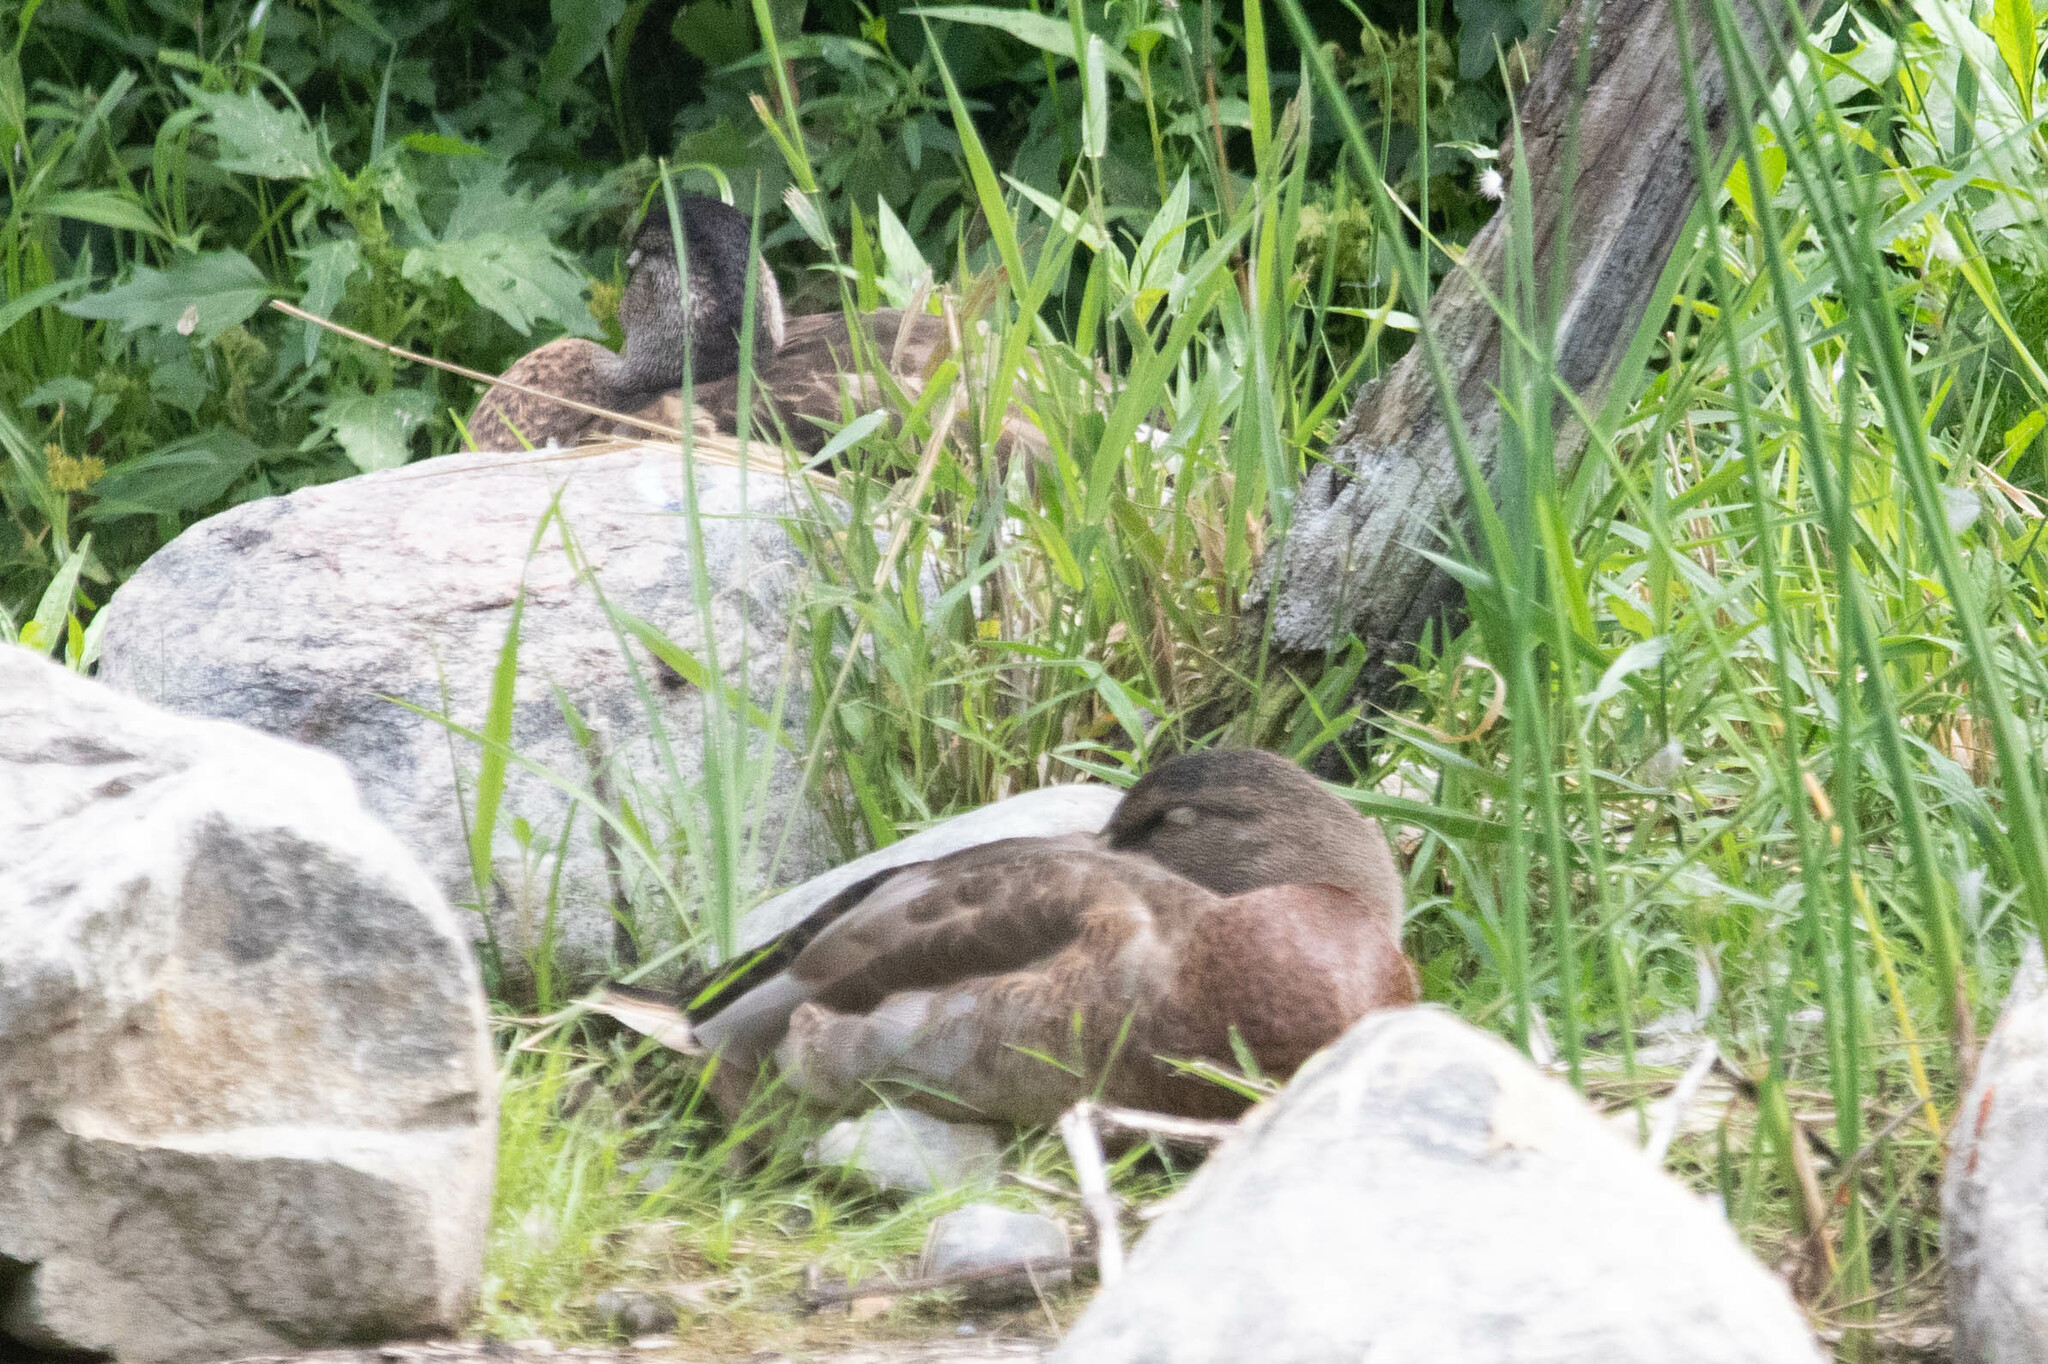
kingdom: Animalia
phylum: Chordata
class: Aves
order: Anseriformes
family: Anatidae
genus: Anas
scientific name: Anas platyrhynchos
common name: Mallard
